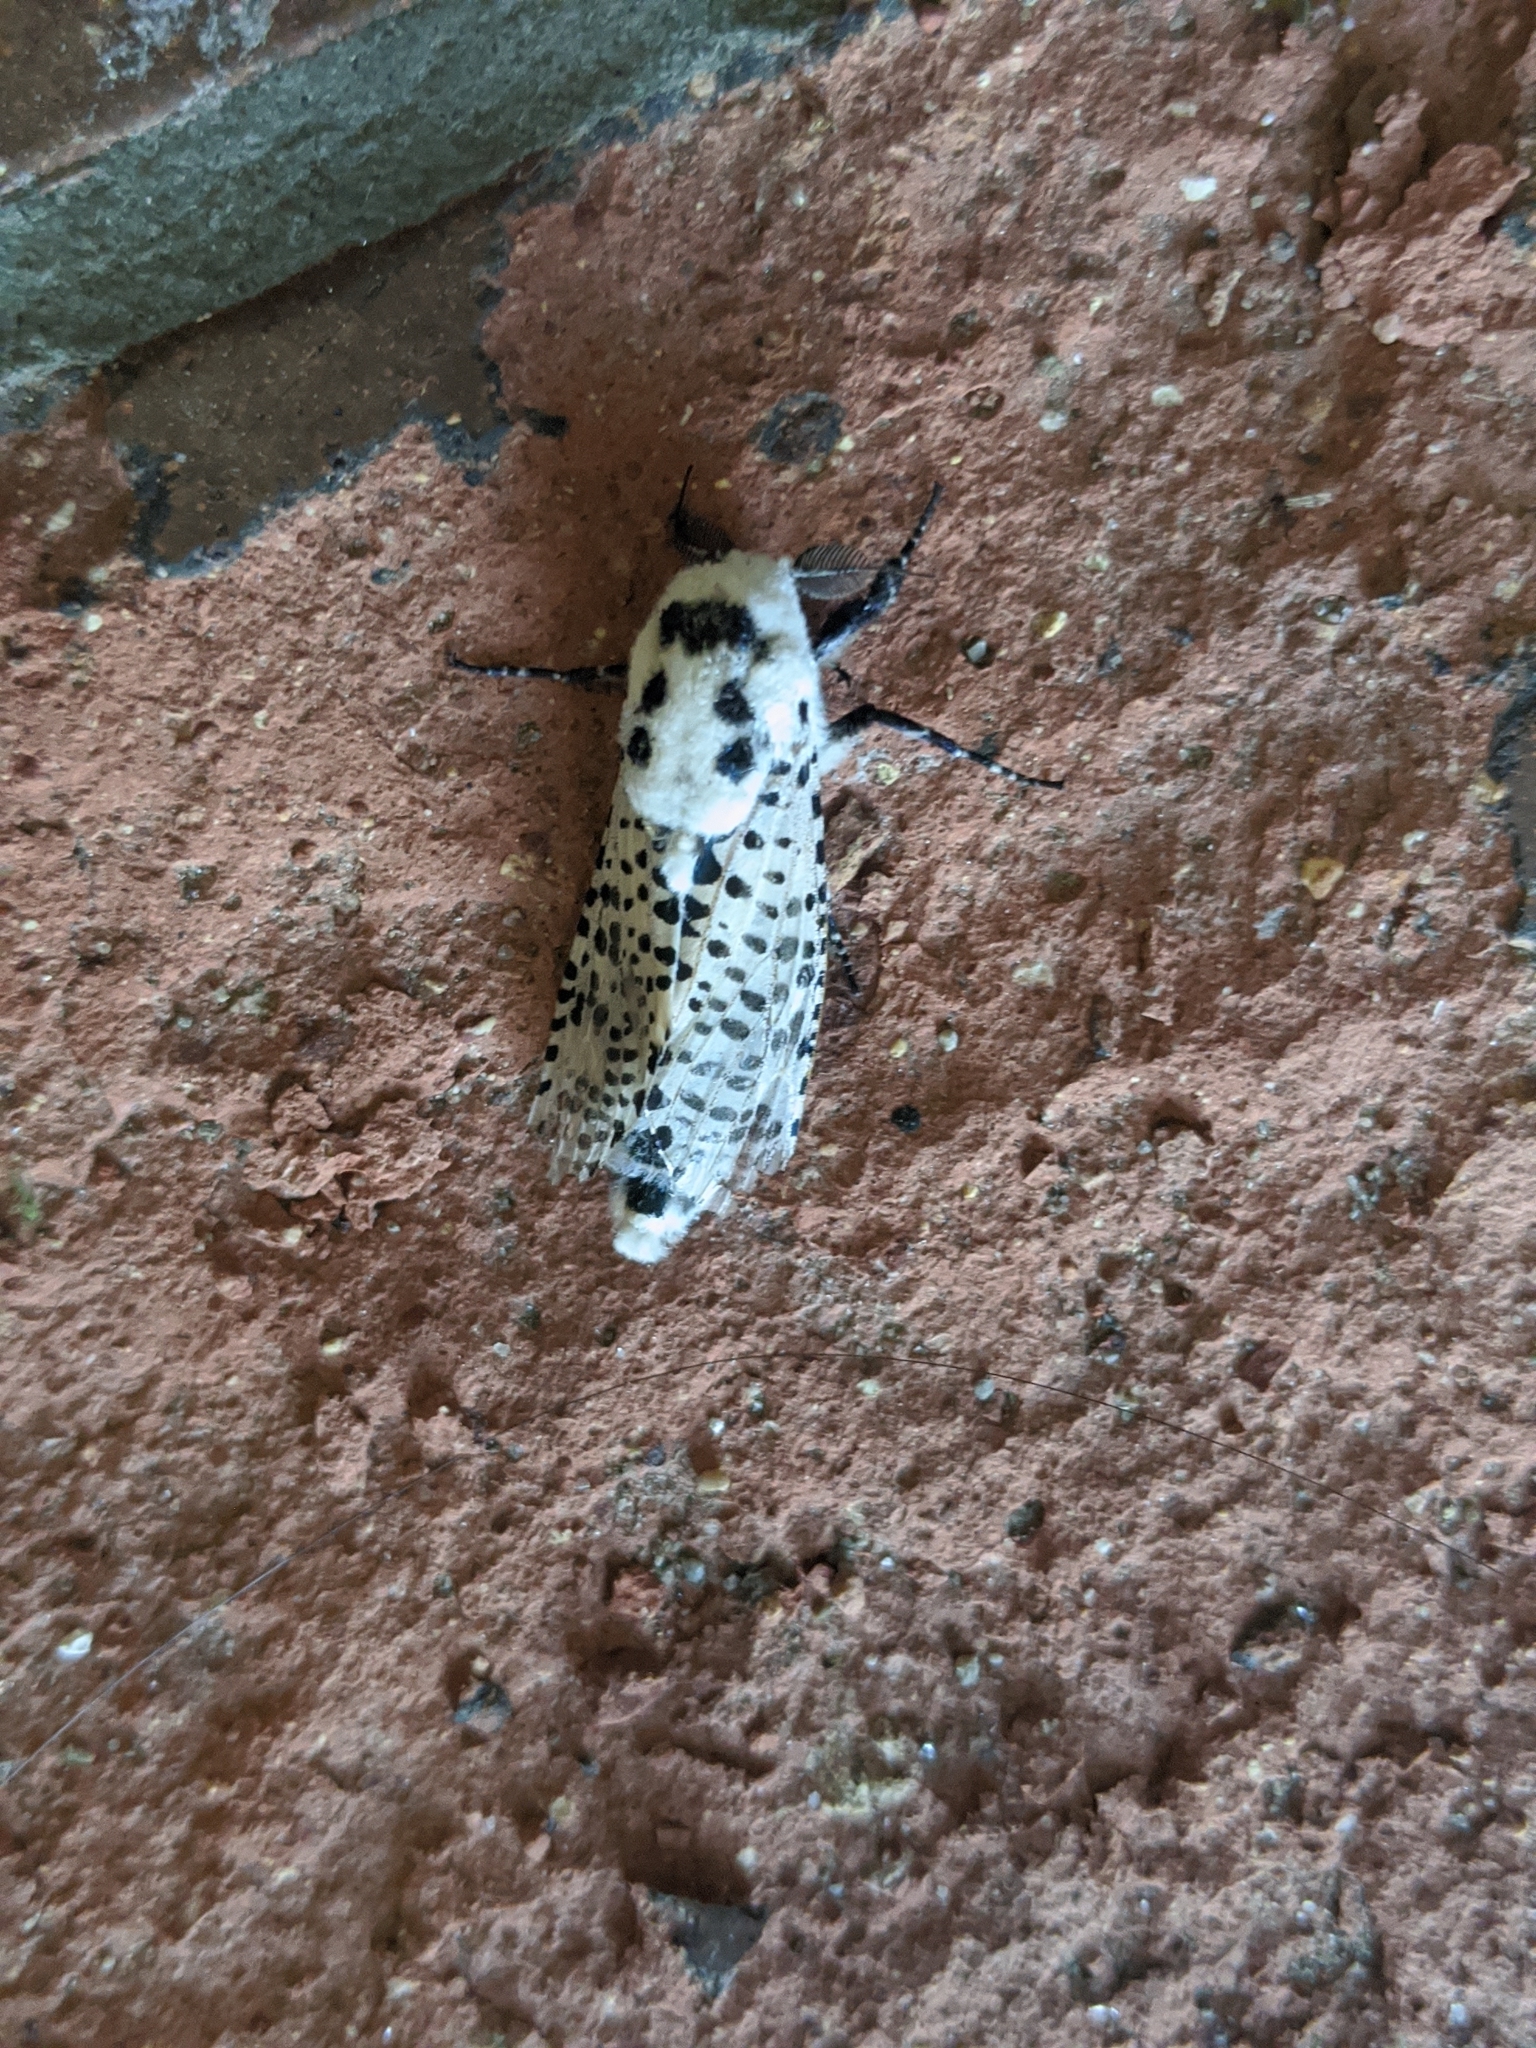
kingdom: Animalia
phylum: Arthropoda
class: Insecta
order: Lepidoptera
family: Cossidae
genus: Zeuzera
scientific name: Zeuzera pyrina
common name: Leopard moth
